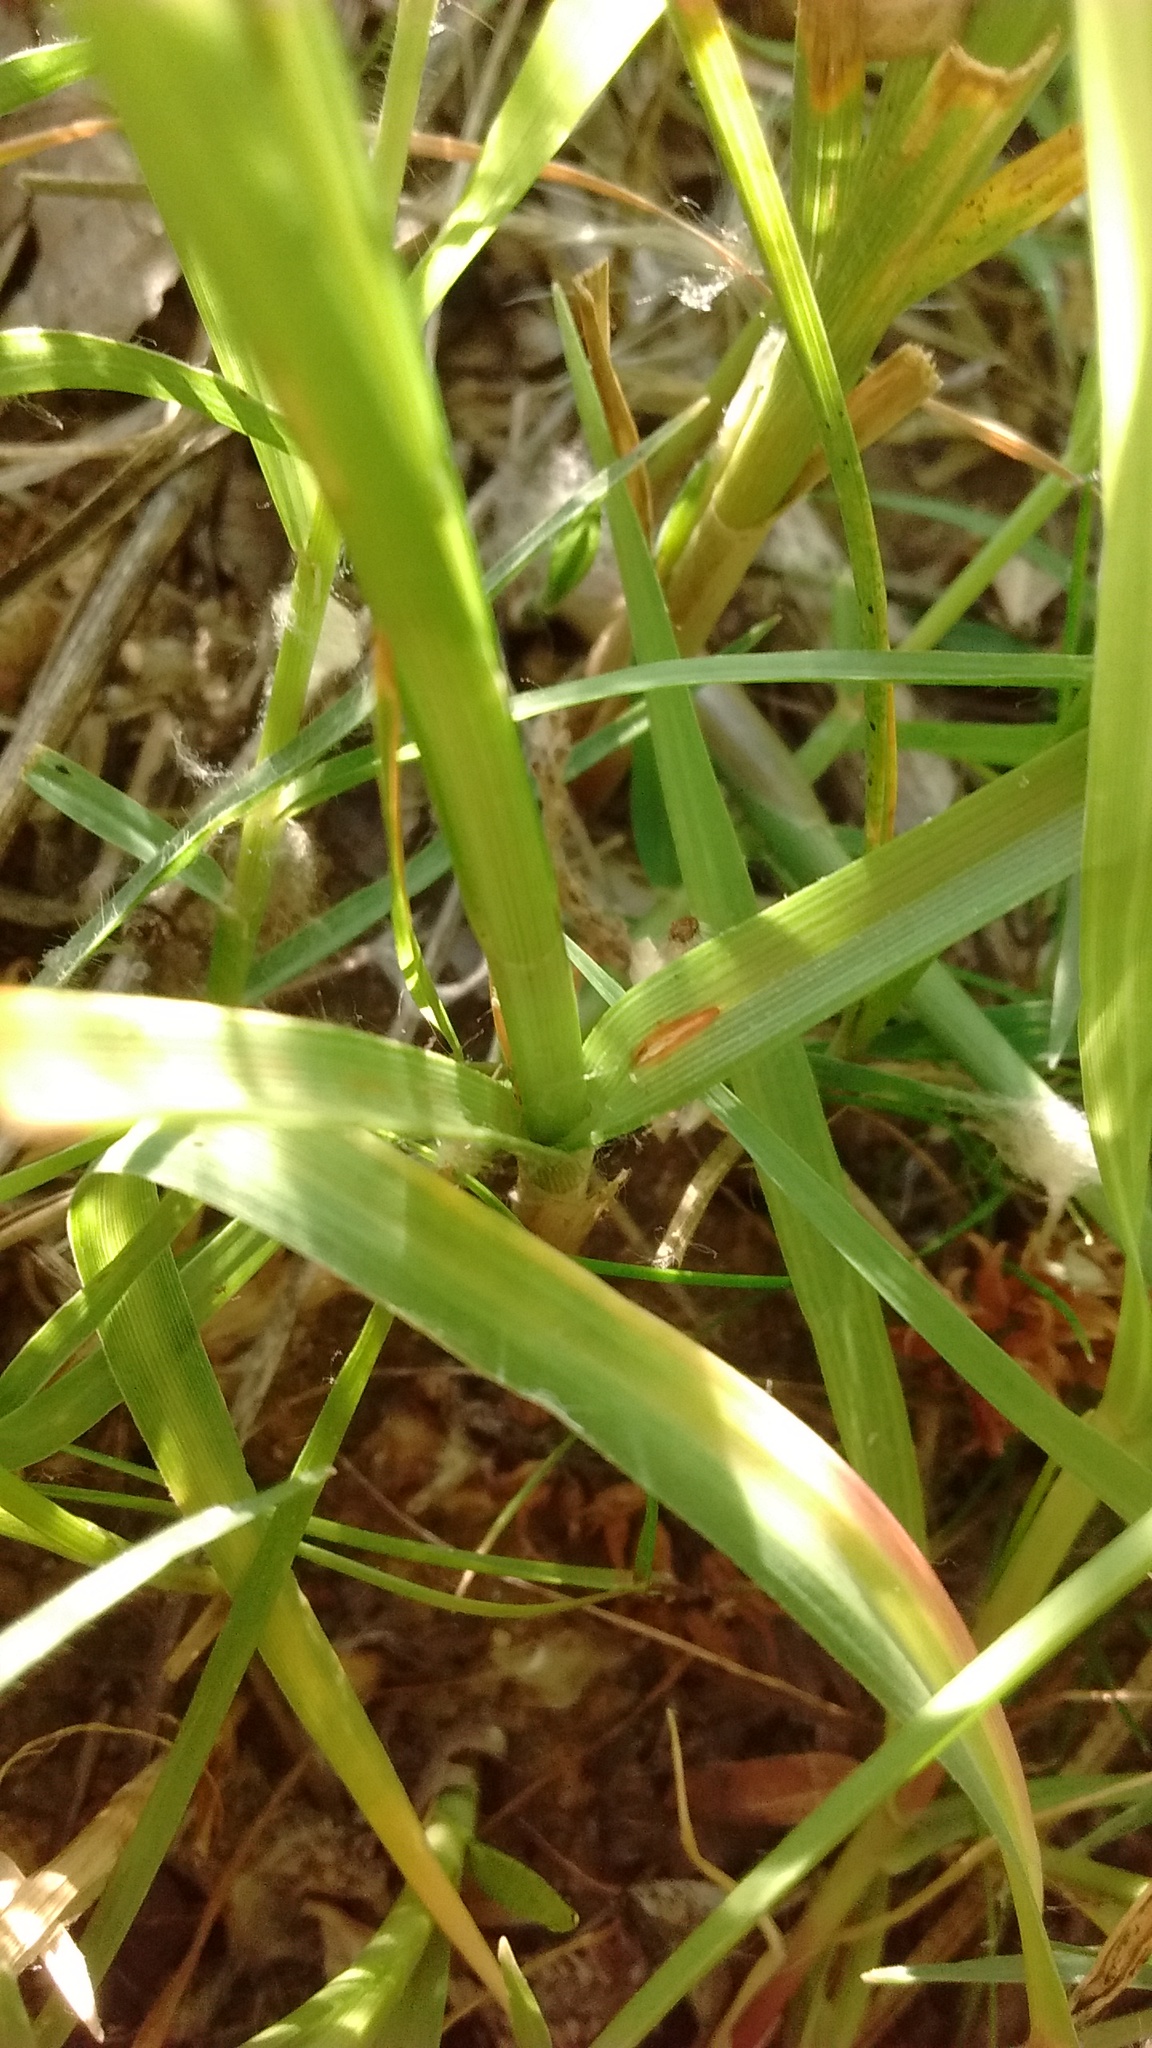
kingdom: Plantae
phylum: Tracheophyta
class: Liliopsida
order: Poales
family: Cyperaceae
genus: Carex
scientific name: Carex divisa
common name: Divided sedge
